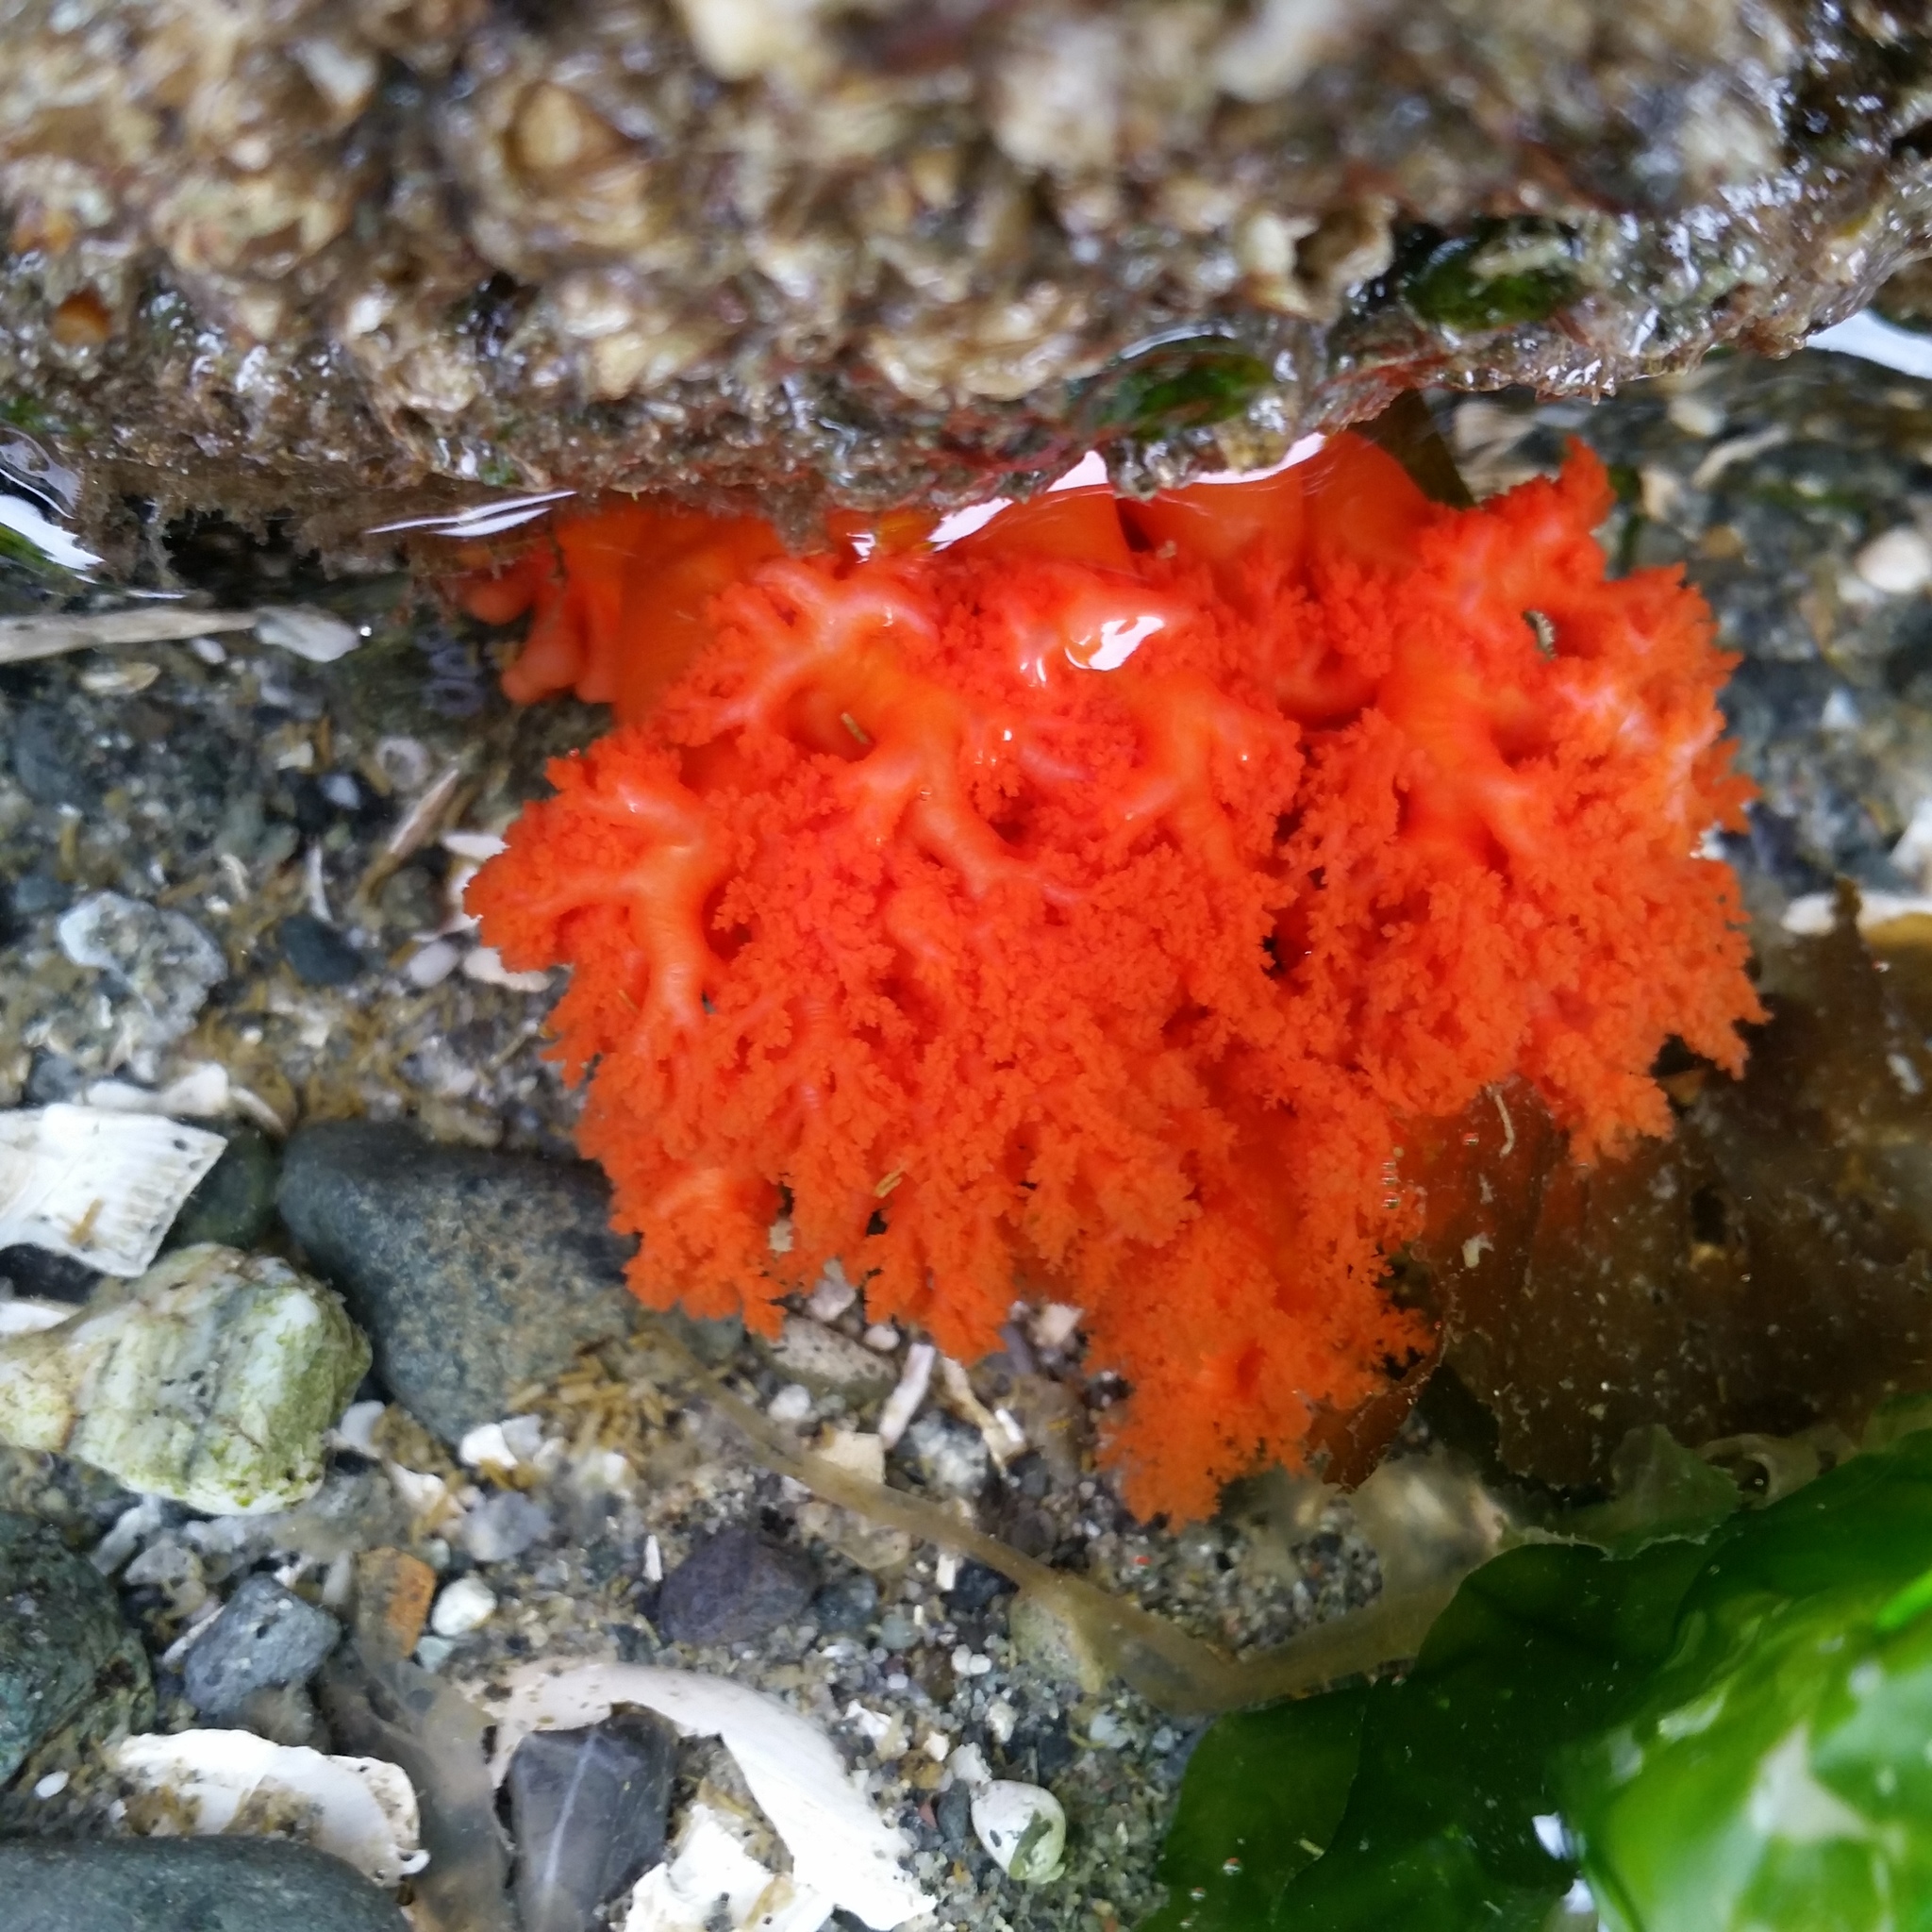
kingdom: Animalia
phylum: Echinodermata
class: Holothuroidea
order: Dendrochirotida
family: Cucumariidae
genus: Cucumaria
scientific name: Cucumaria miniata
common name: Orange sea cucumber
